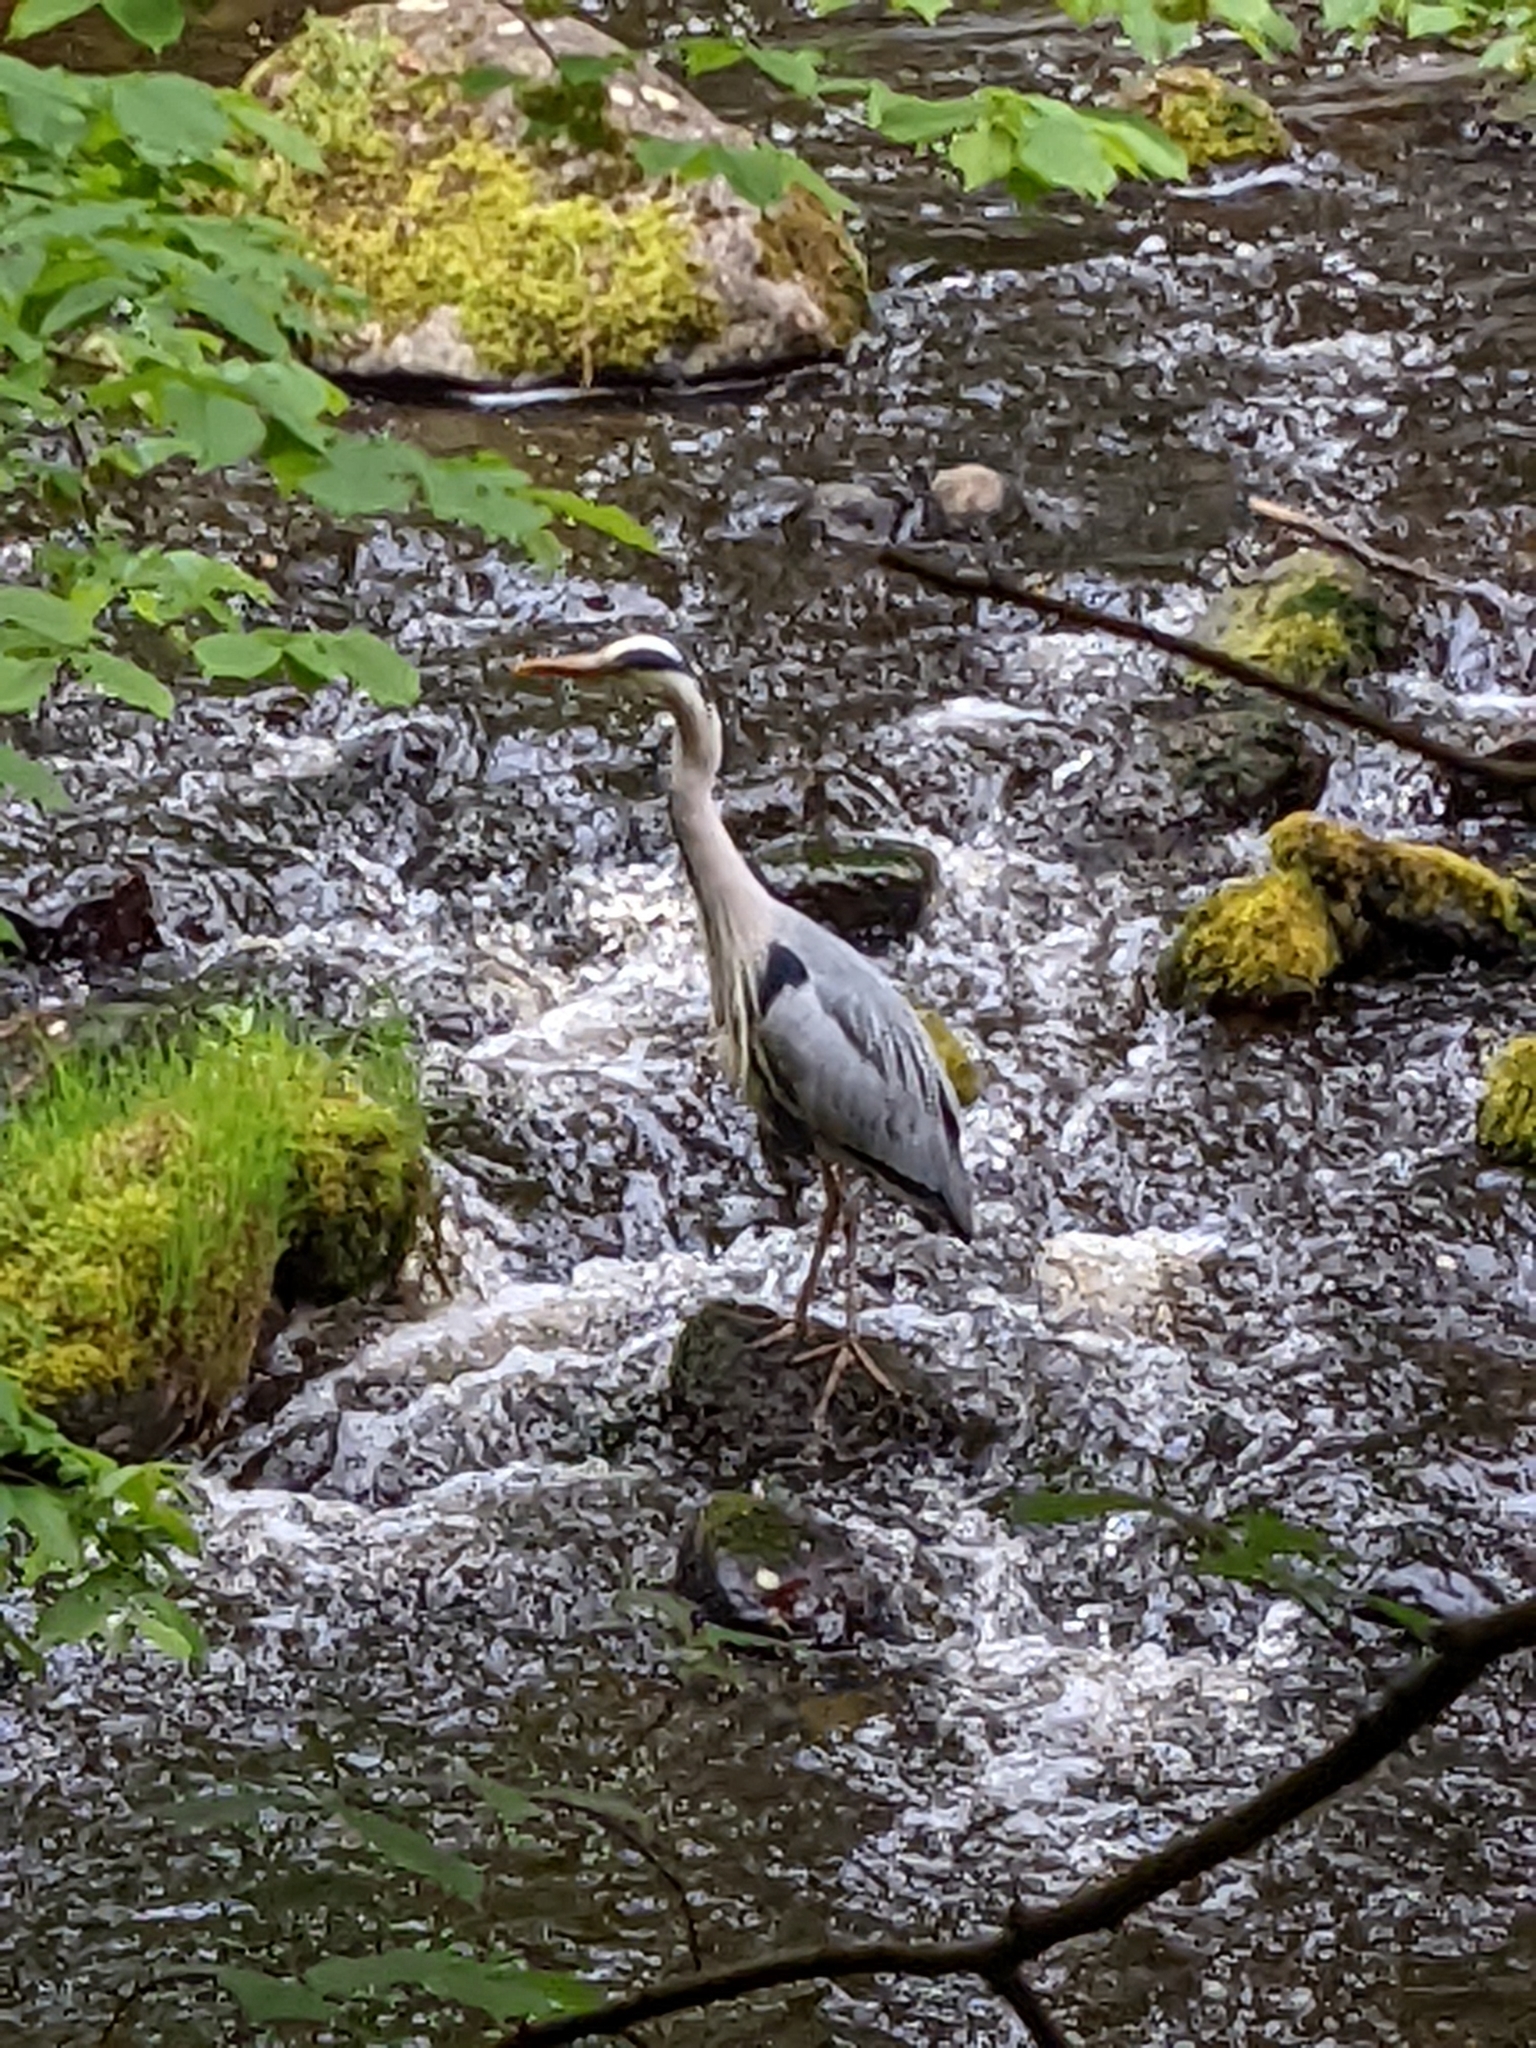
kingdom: Animalia
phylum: Chordata
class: Aves
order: Pelecaniformes
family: Ardeidae
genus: Ardea
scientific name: Ardea cinerea
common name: Grey heron
